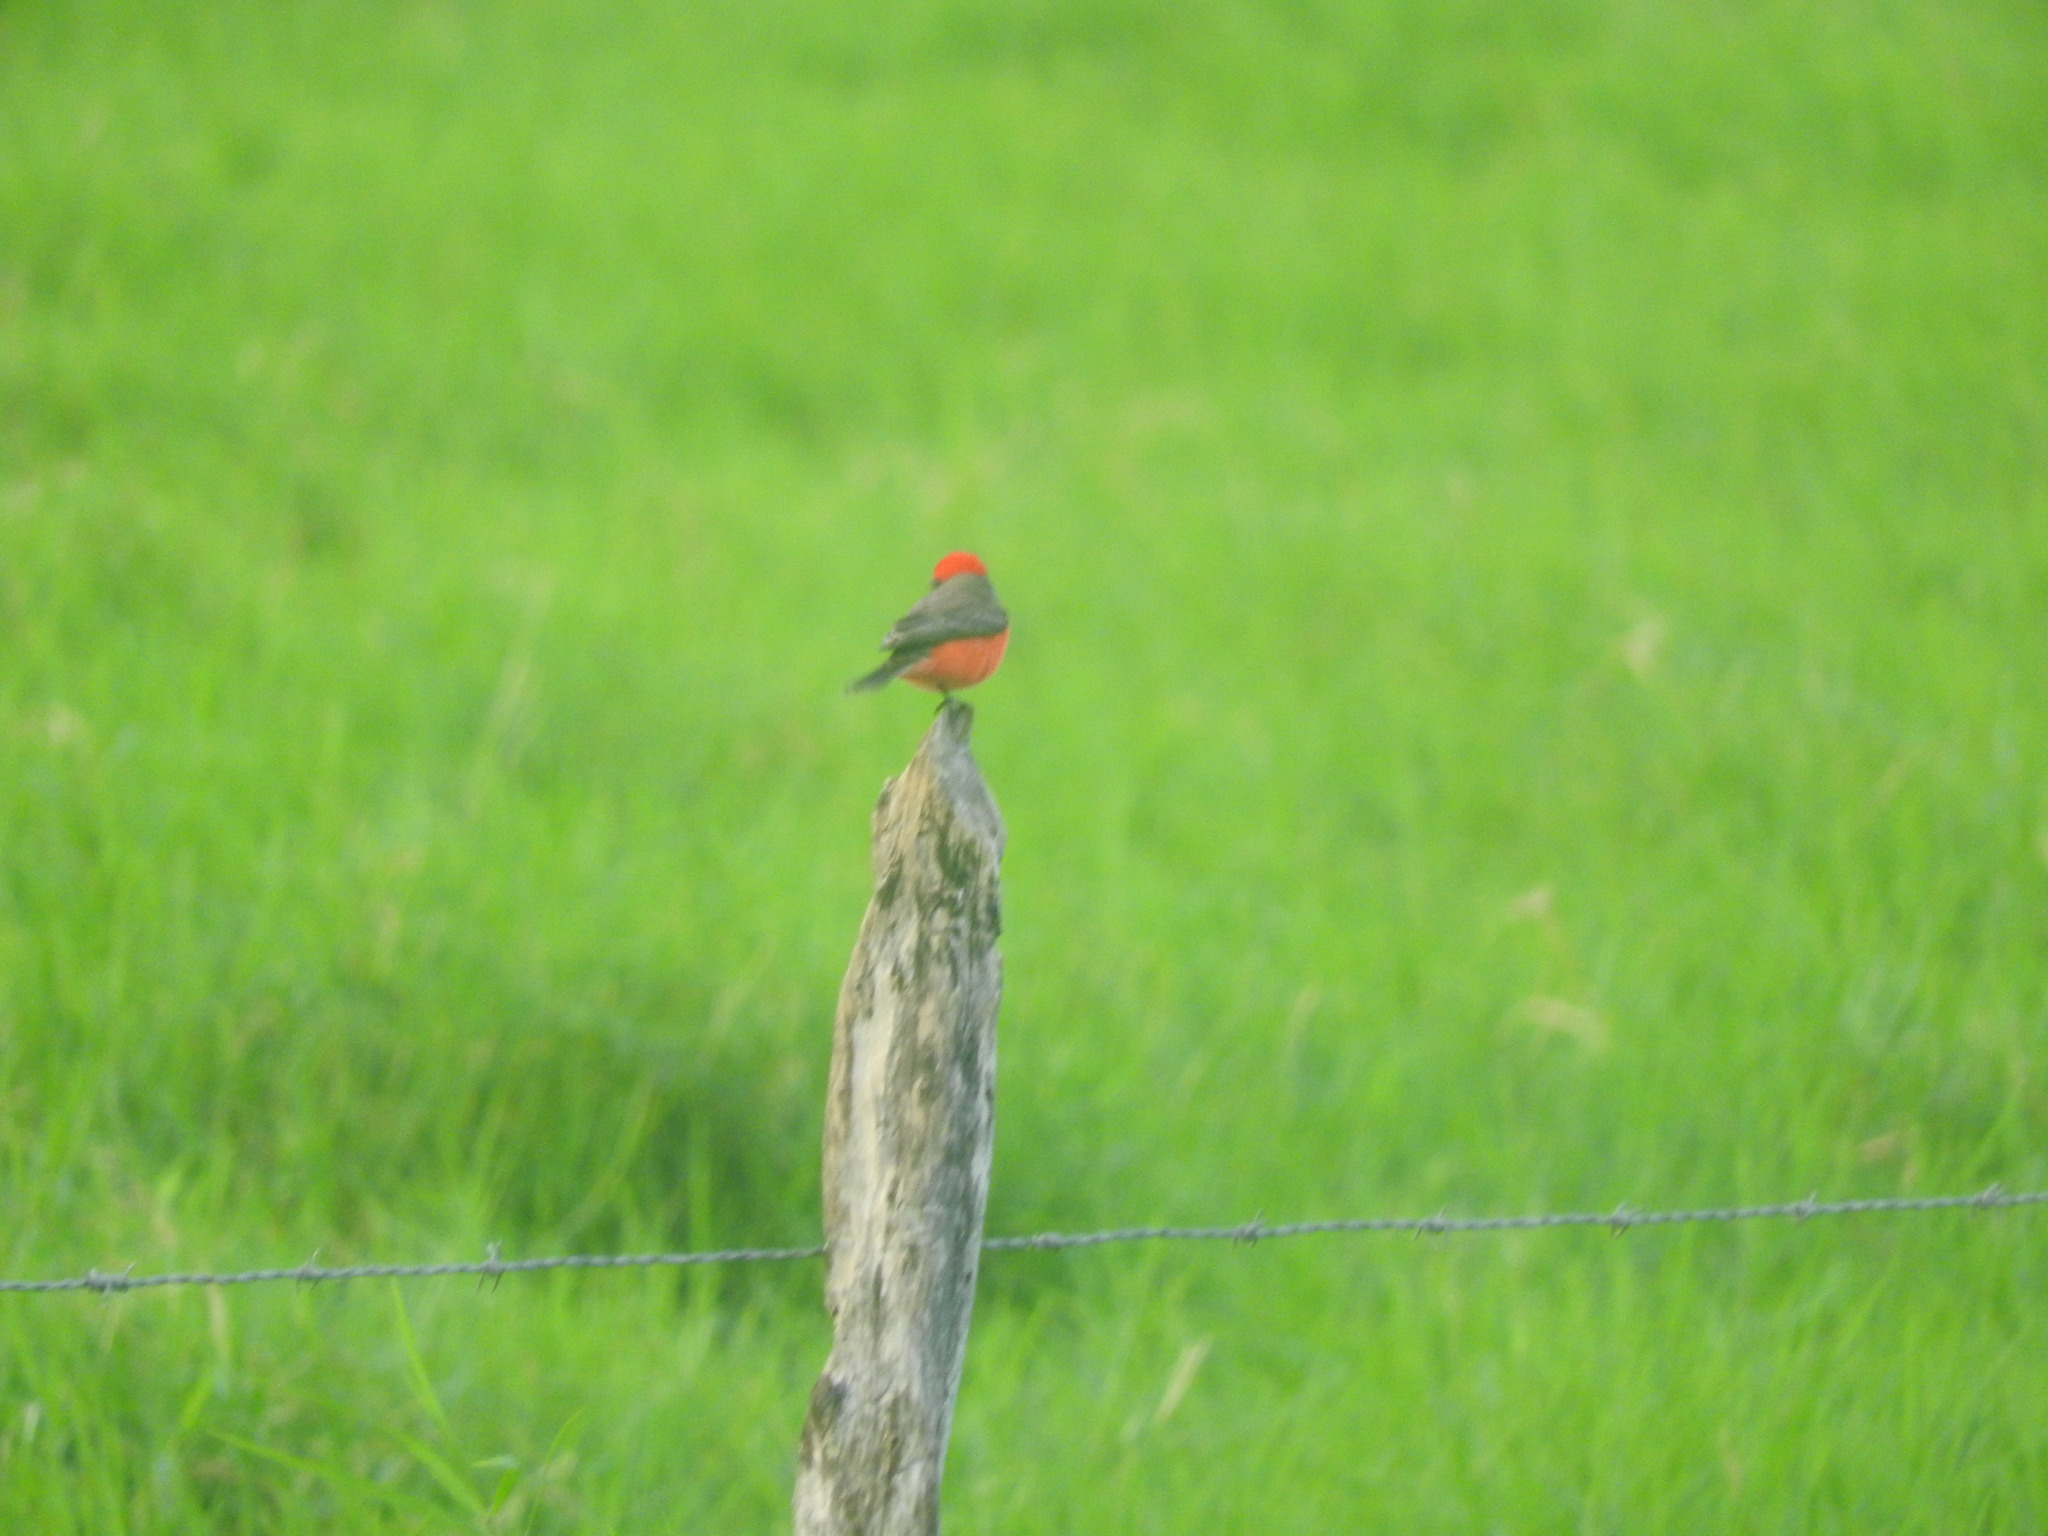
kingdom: Animalia
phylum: Chordata
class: Aves
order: Passeriformes
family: Tyrannidae
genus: Pyrocephalus
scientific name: Pyrocephalus rubinus
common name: Vermilion flycatcher
